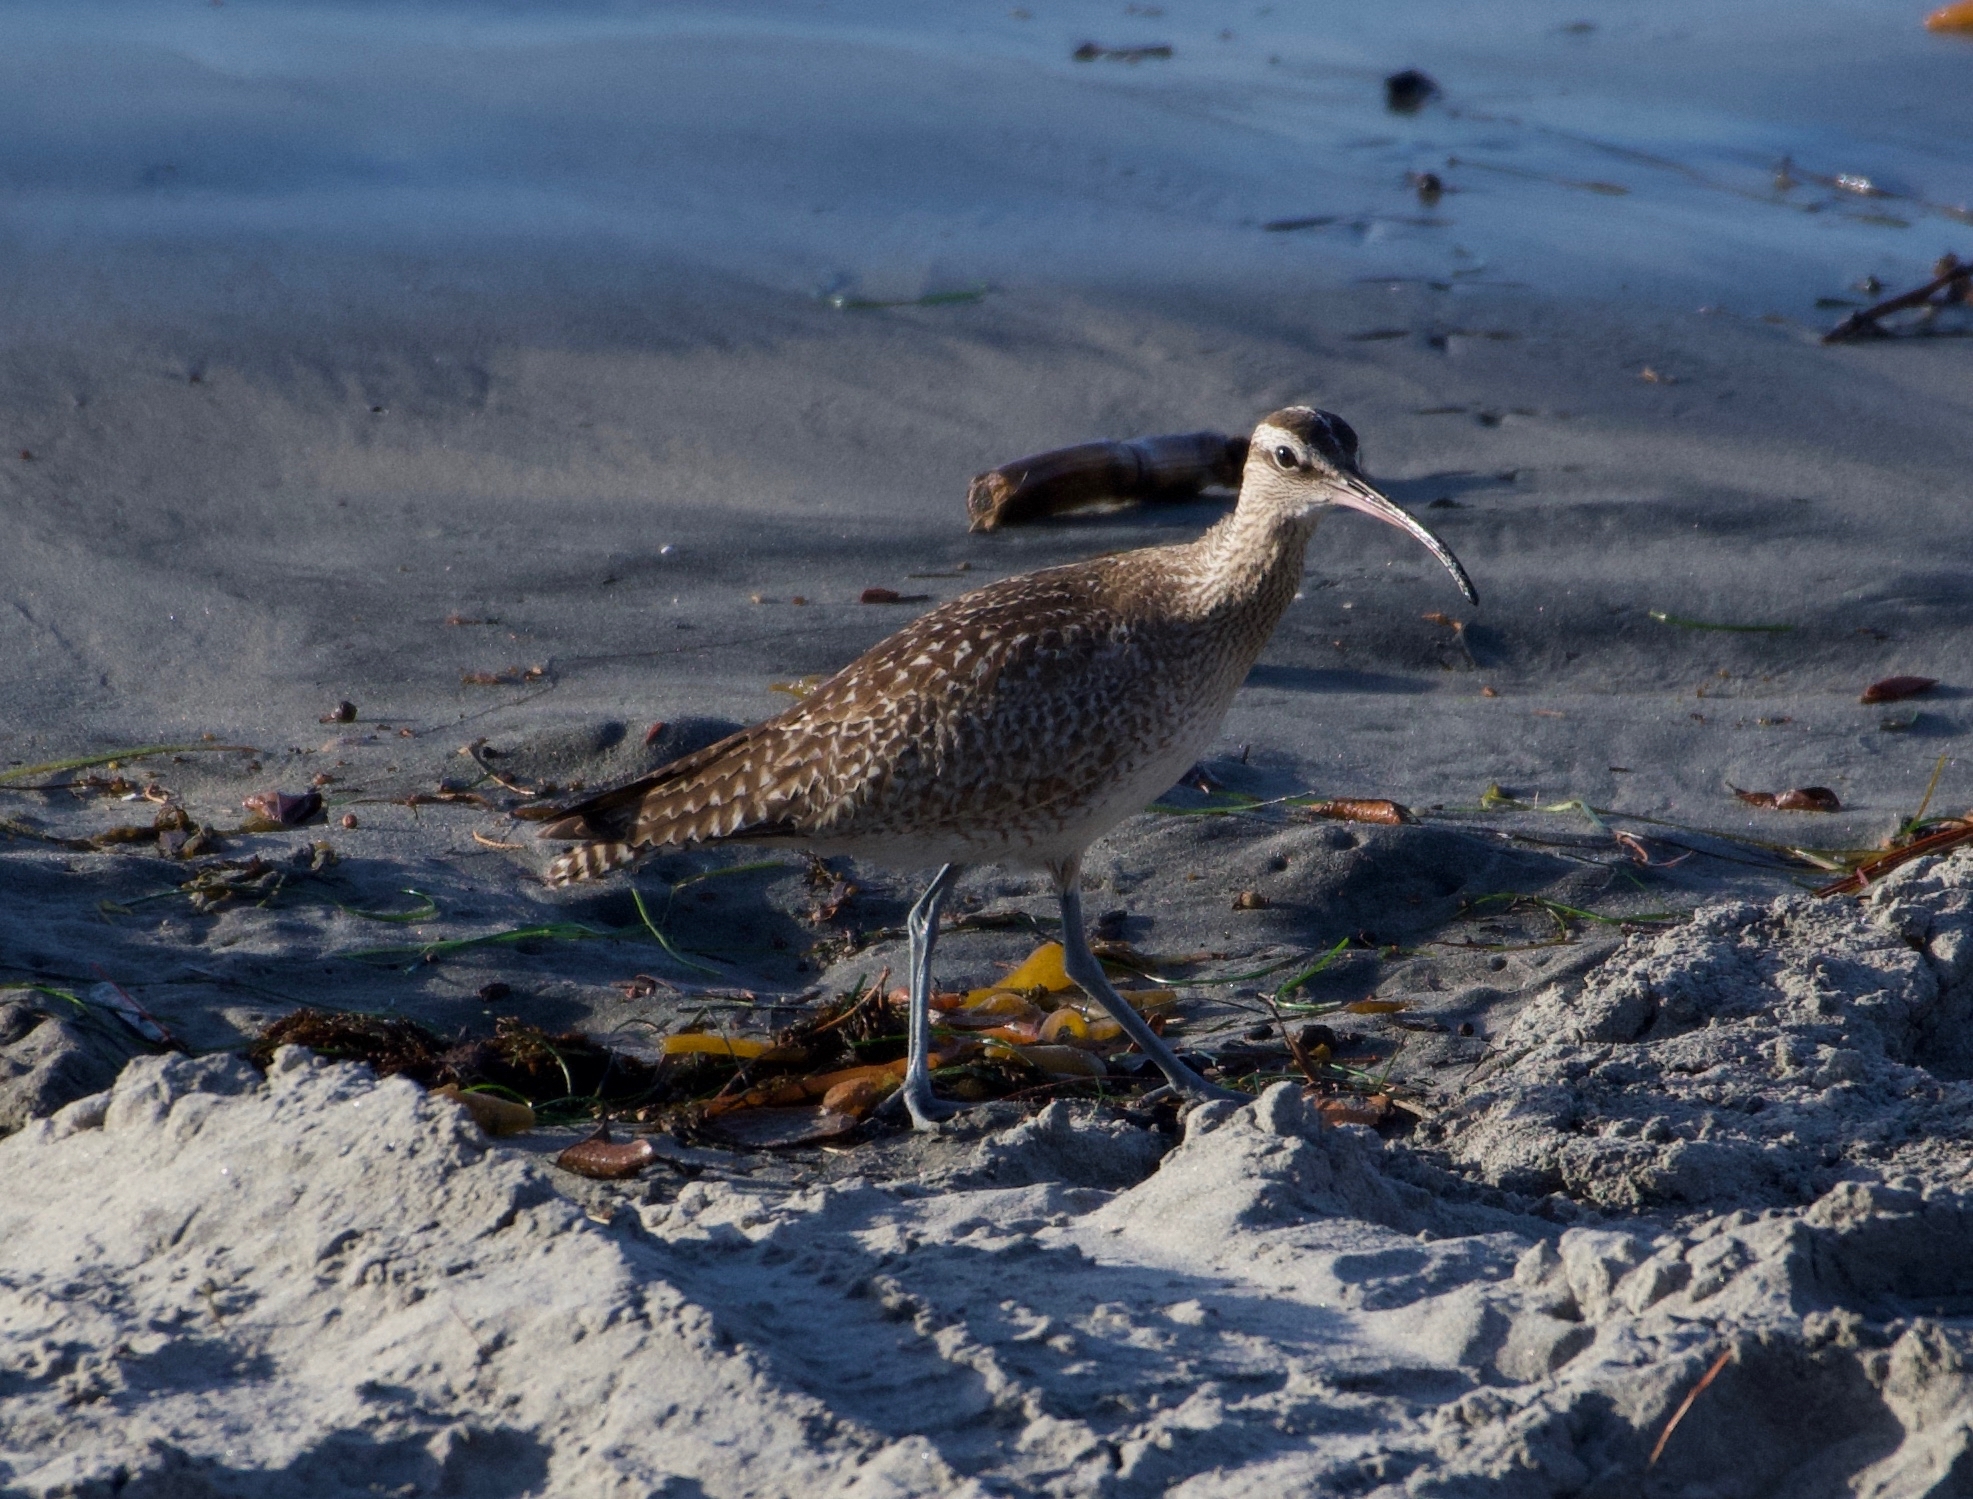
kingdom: Animalia
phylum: Chordata
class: Aves
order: Charadriiformes
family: Scolopacidae
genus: Numenius
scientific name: Numenius phaeopus
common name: Whimbrel
